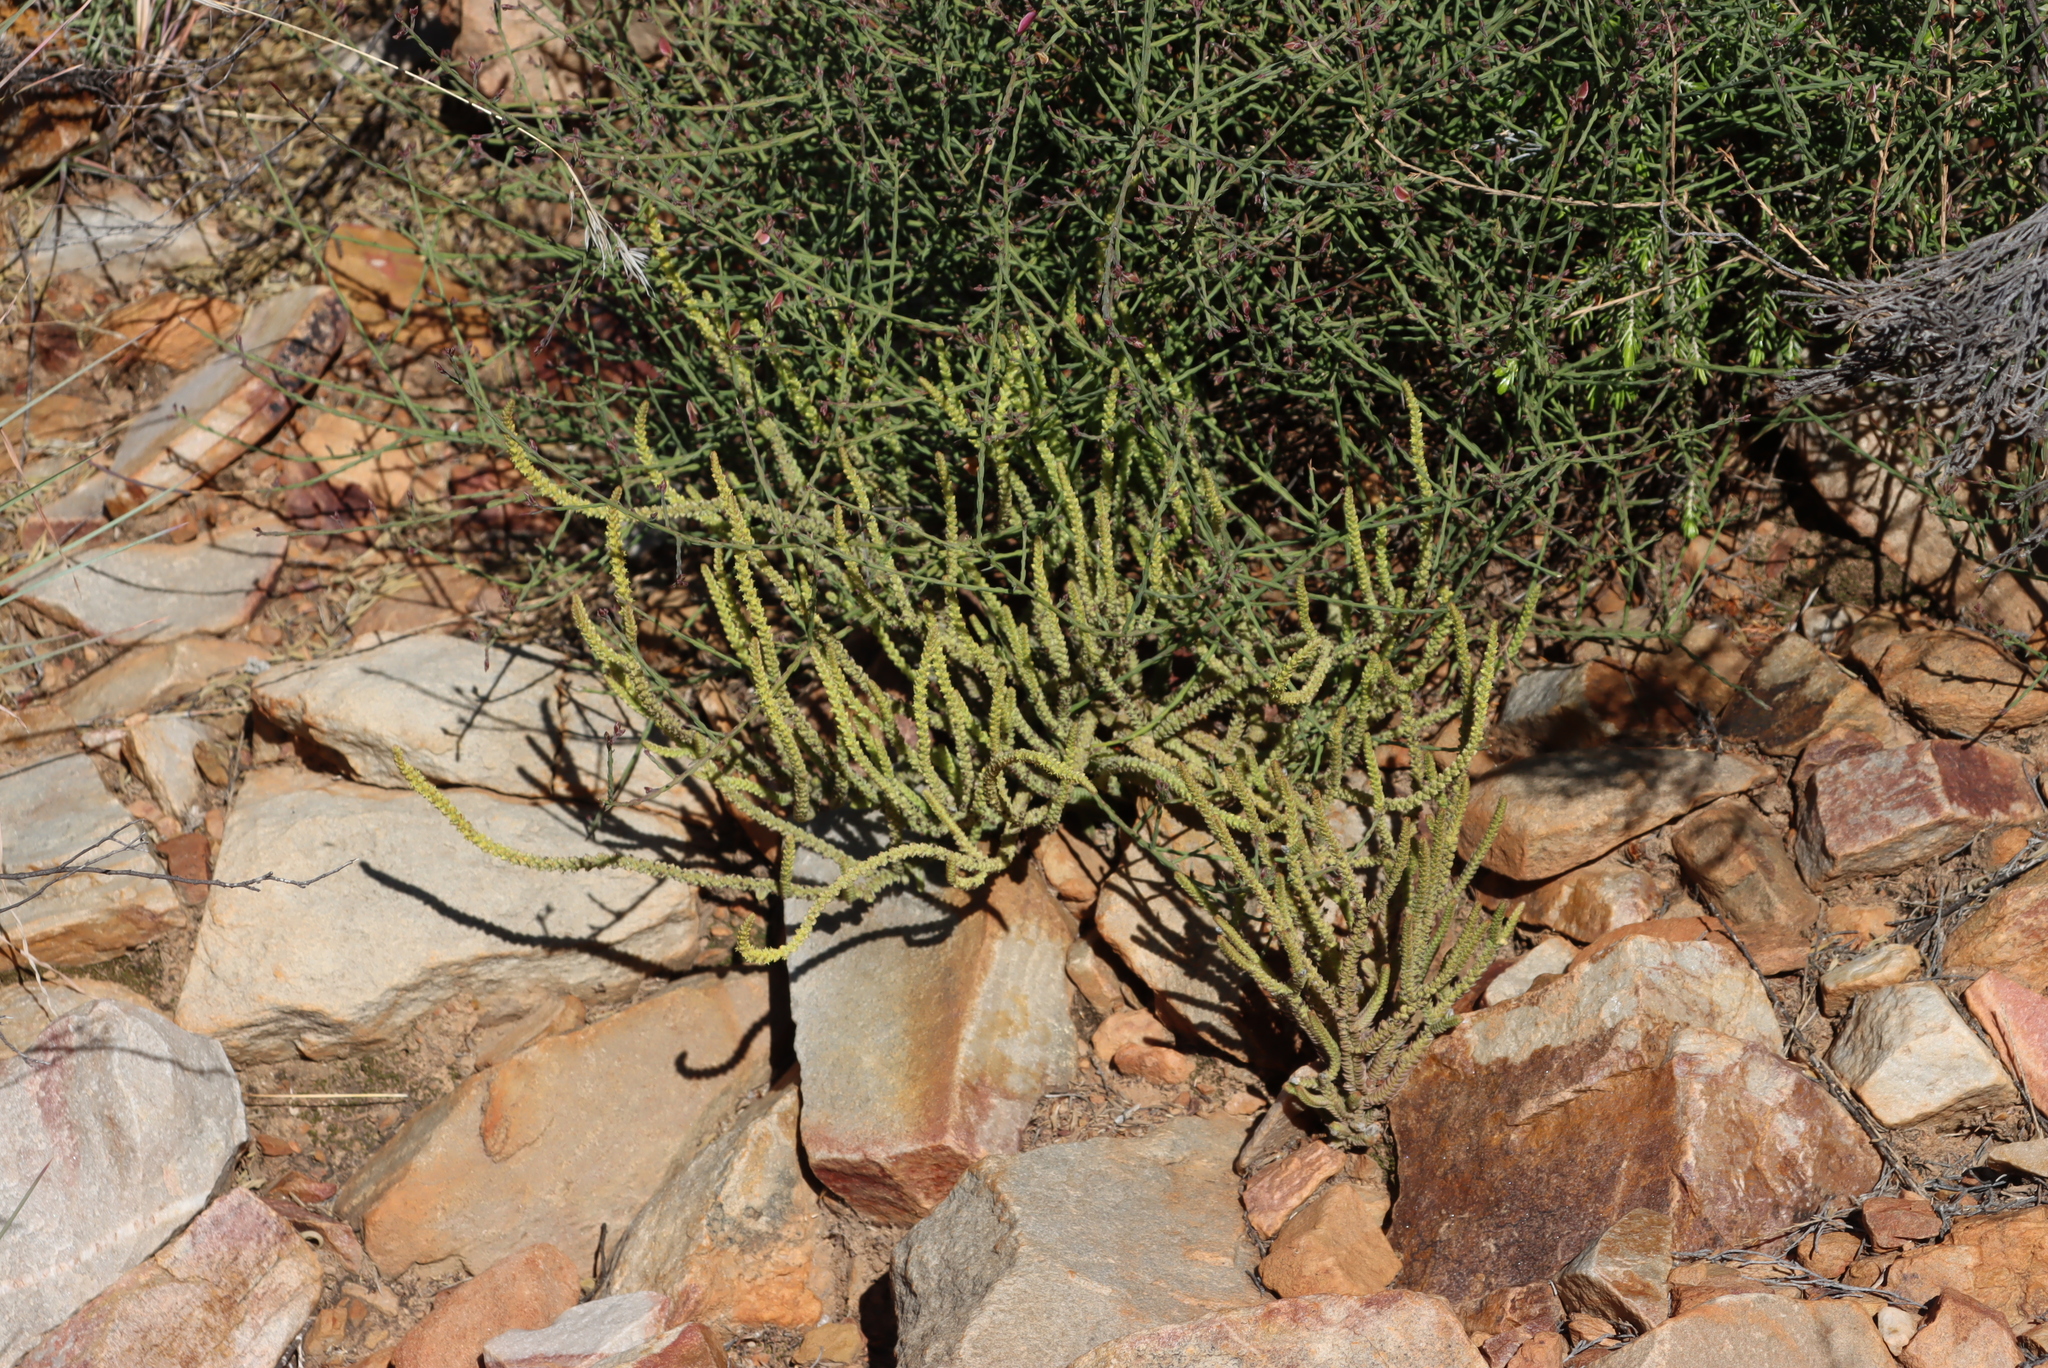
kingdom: Plantae
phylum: Tracheophyta
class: Magnoliopsida
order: Saxifragales
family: Crassulaceae
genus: Crassula
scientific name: Crassula muscosa
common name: Toy-cypress
